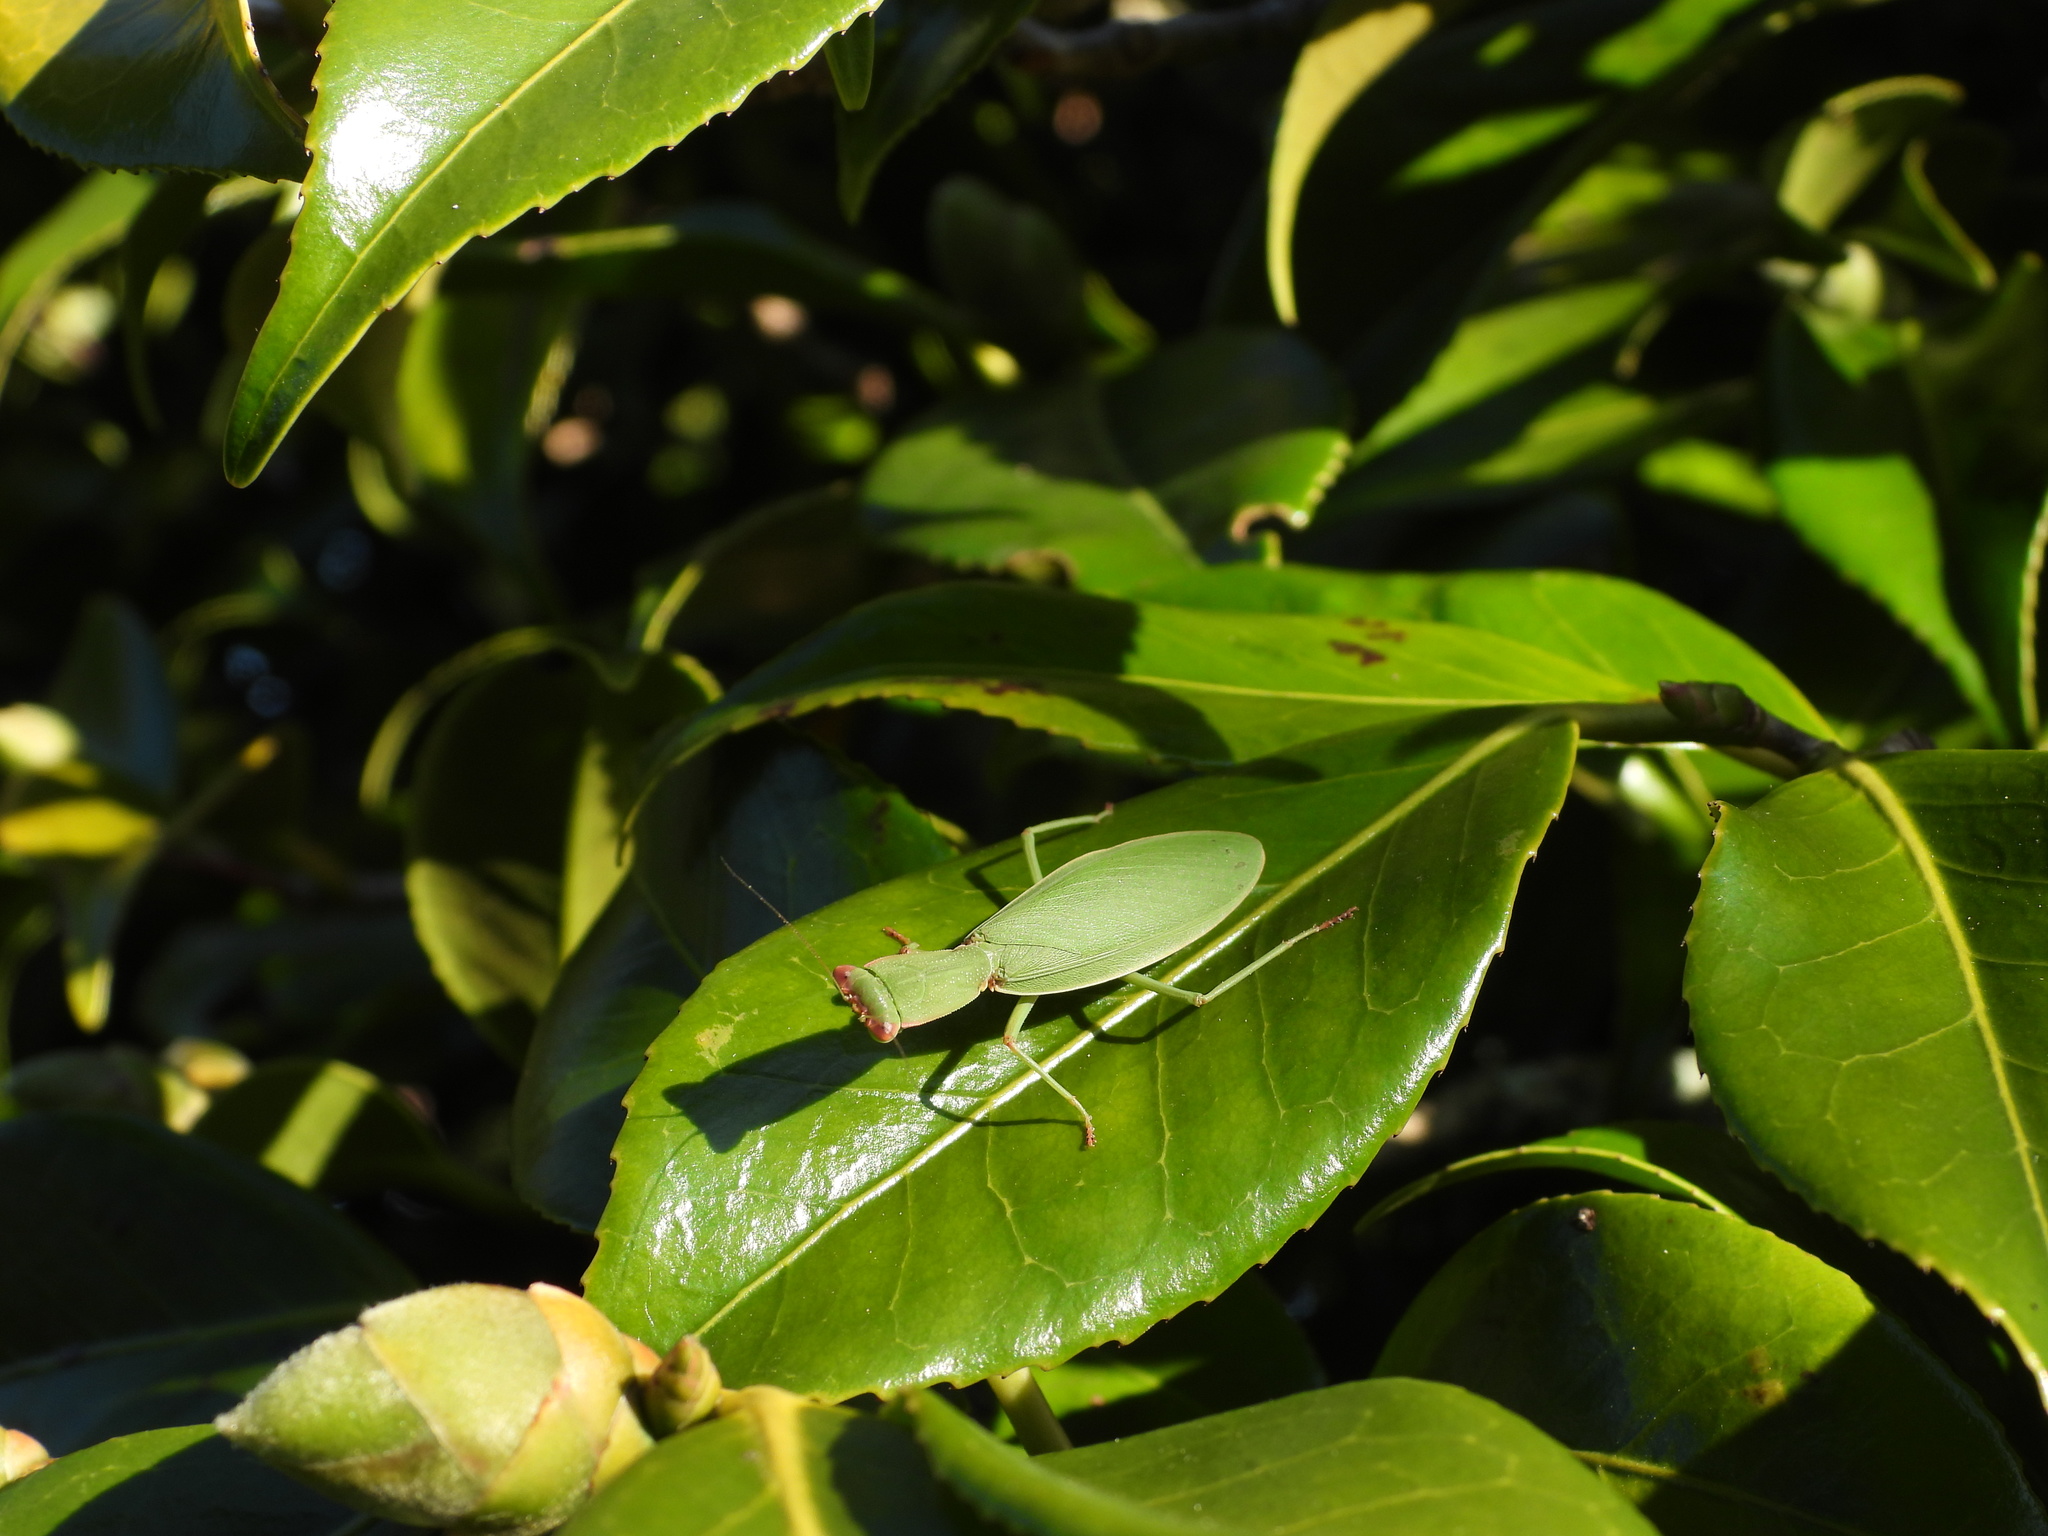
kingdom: Animalia
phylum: Arthropoda
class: Insecta
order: Mantodea
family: Mantidae
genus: Orthodera
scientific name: Orthodera novaezealandiae
